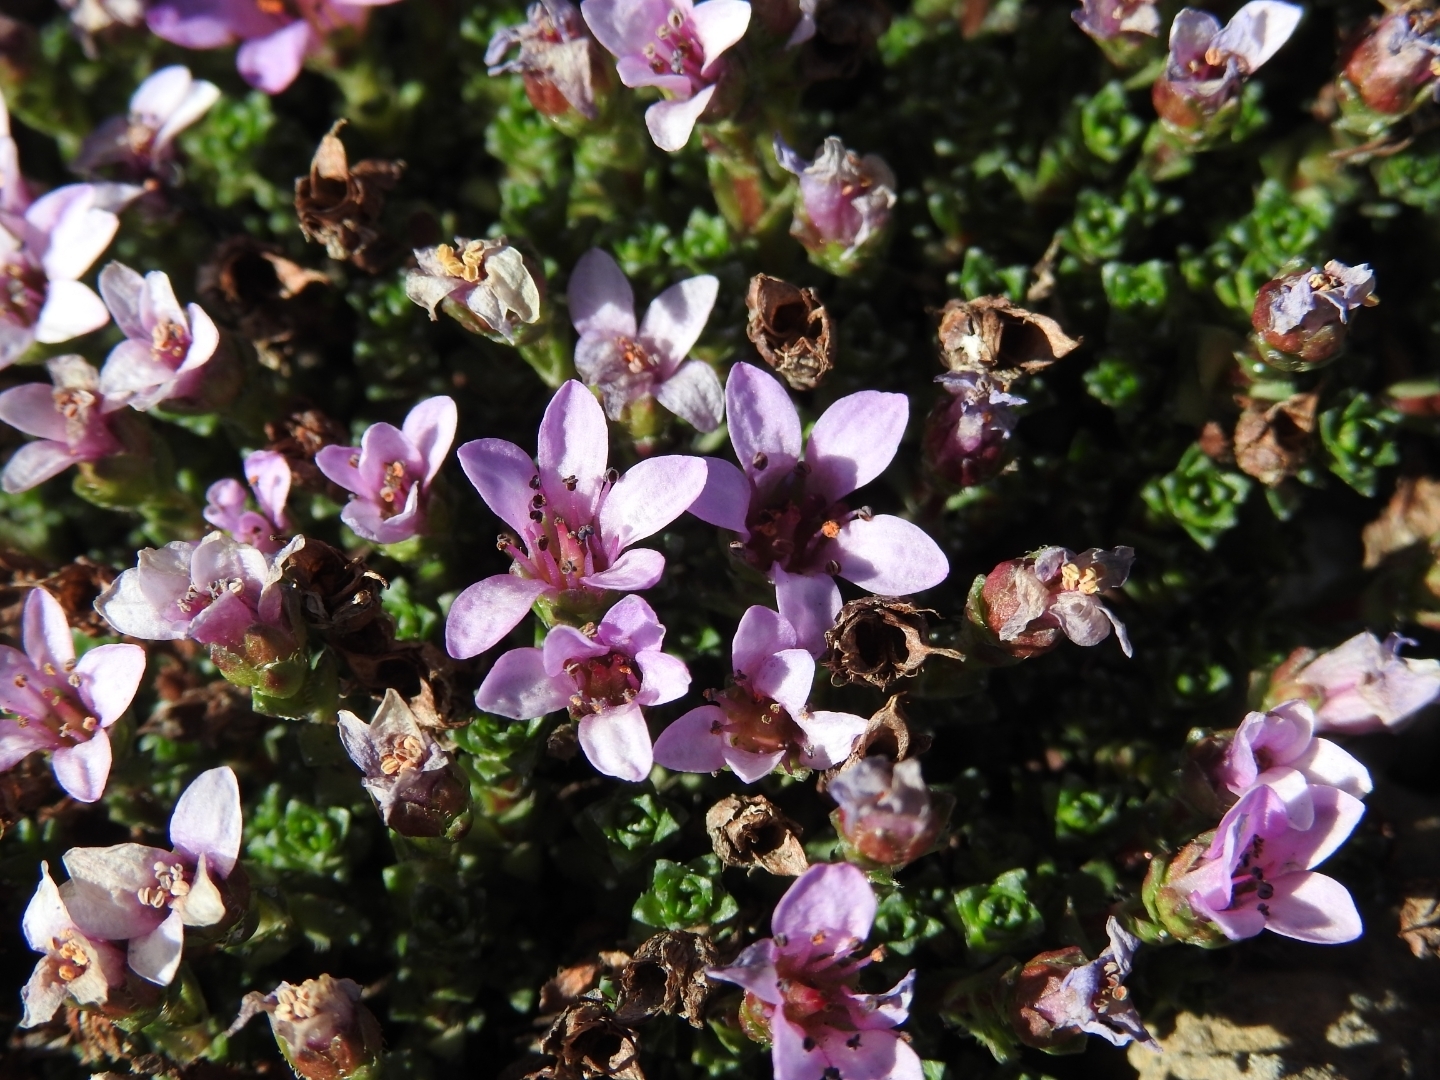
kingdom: Plantae
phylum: Tracheophyta
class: Magnoliopsida
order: Saxifragales
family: Saxifragaceae
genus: Saxifraga
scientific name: Saxifraga oppositifolia
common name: Purple saxifrage
